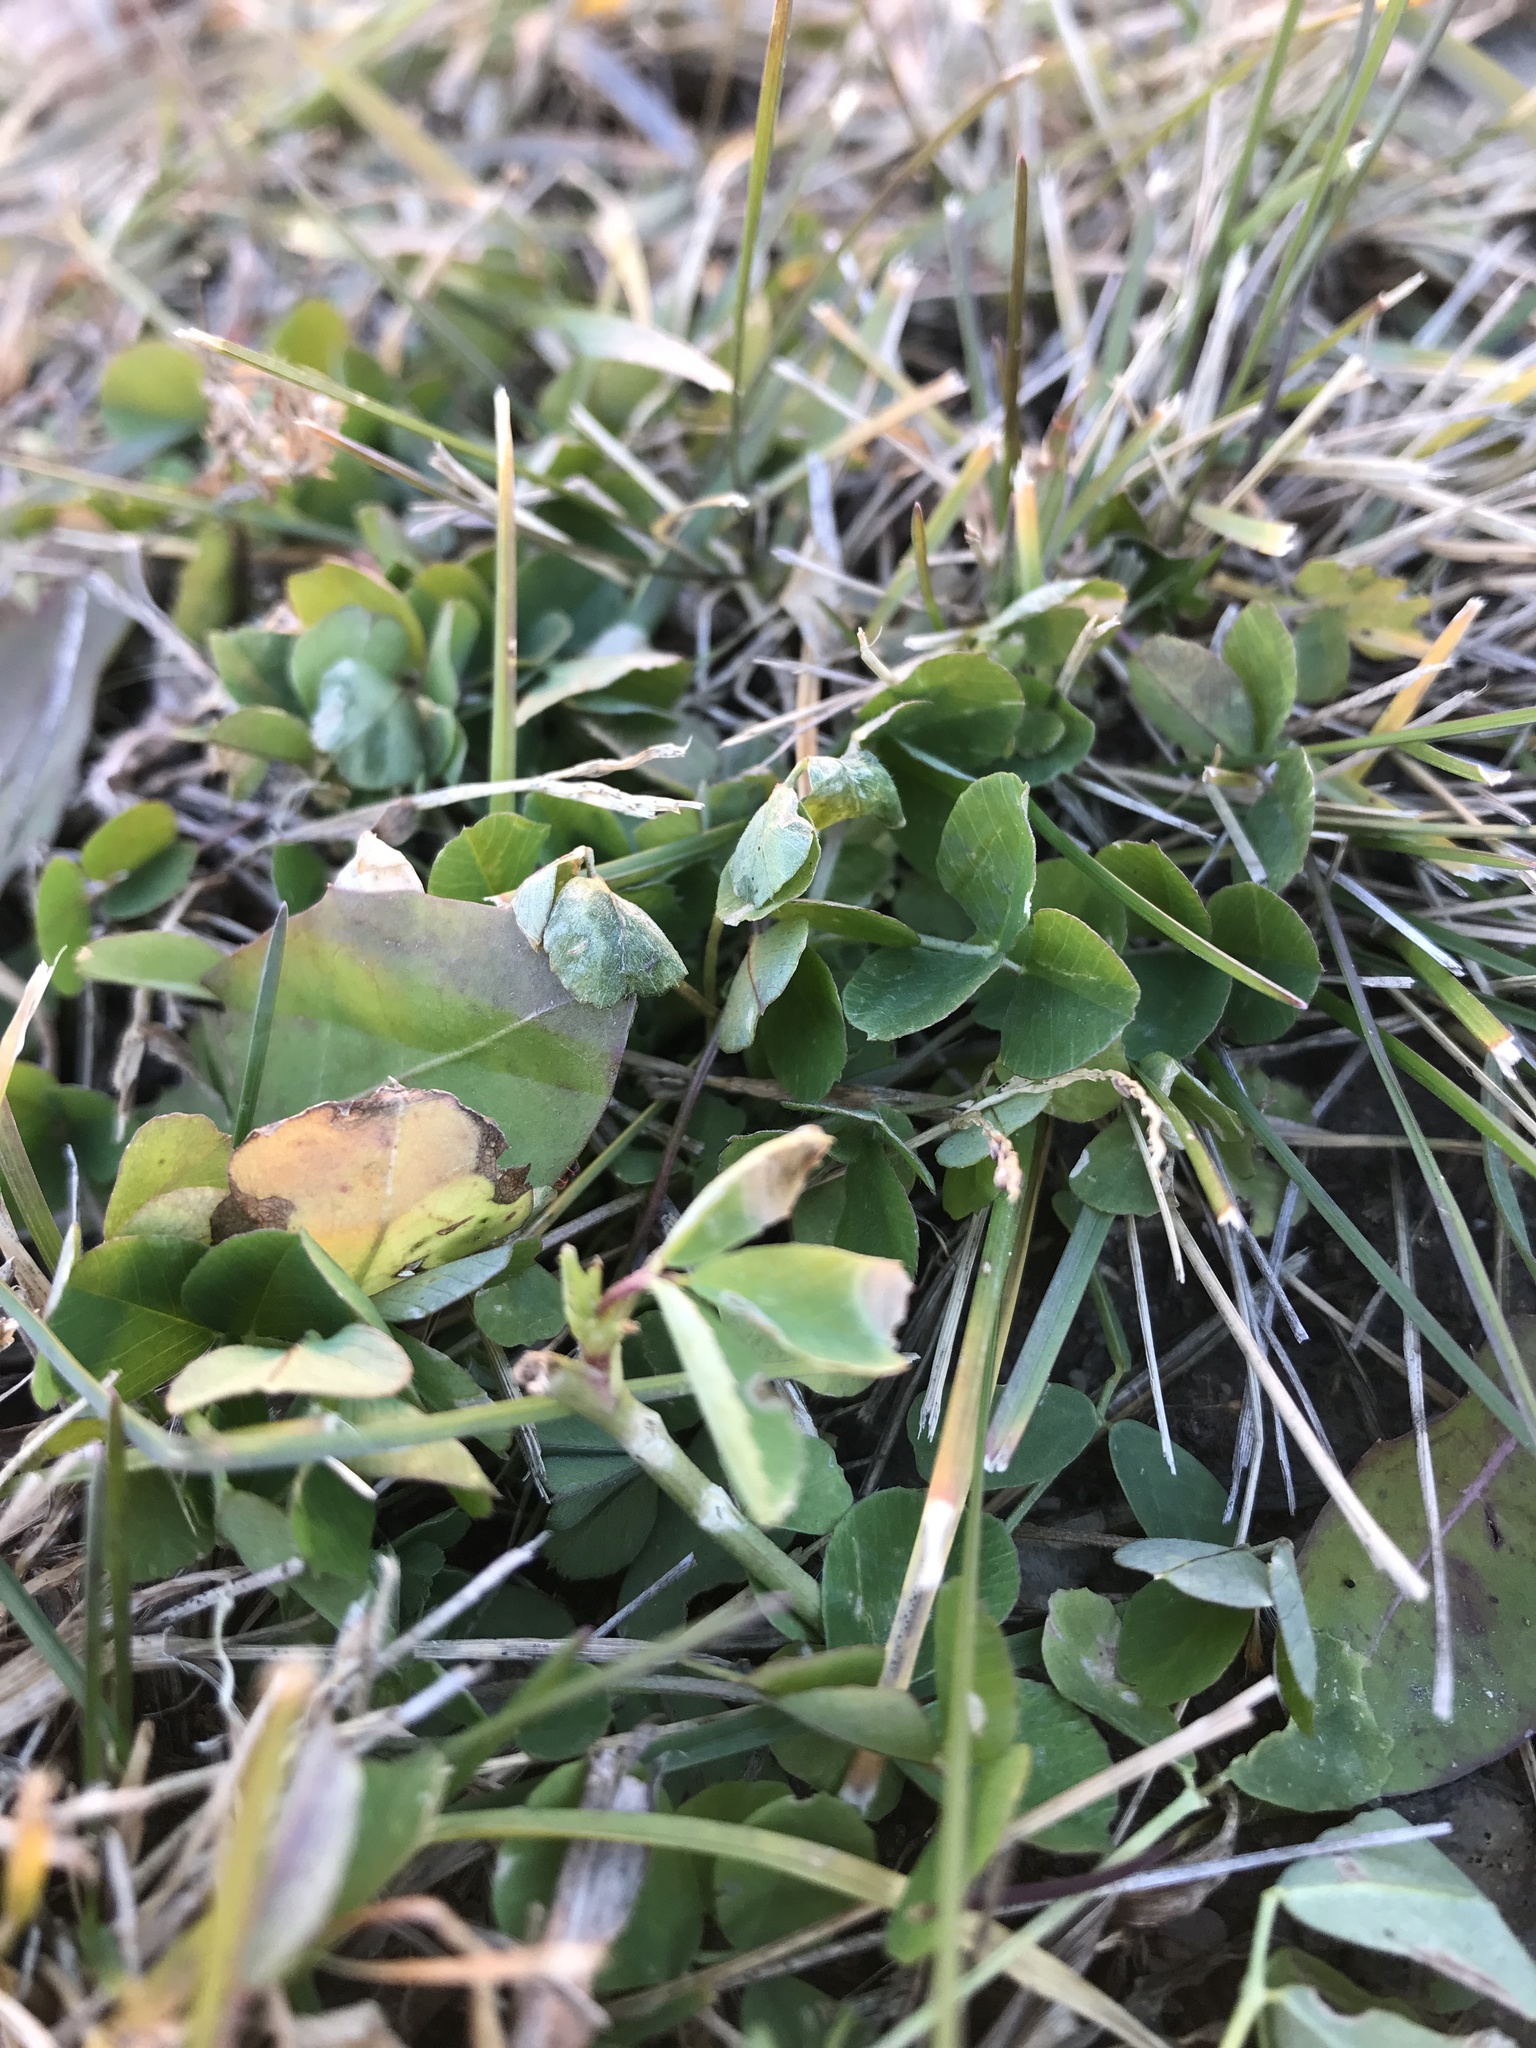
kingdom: Plantae
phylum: Tracheophyta
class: Magnoliopsida
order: Fabales
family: Fabaceae
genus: Trifolium
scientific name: Trifolium repens
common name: White clover
